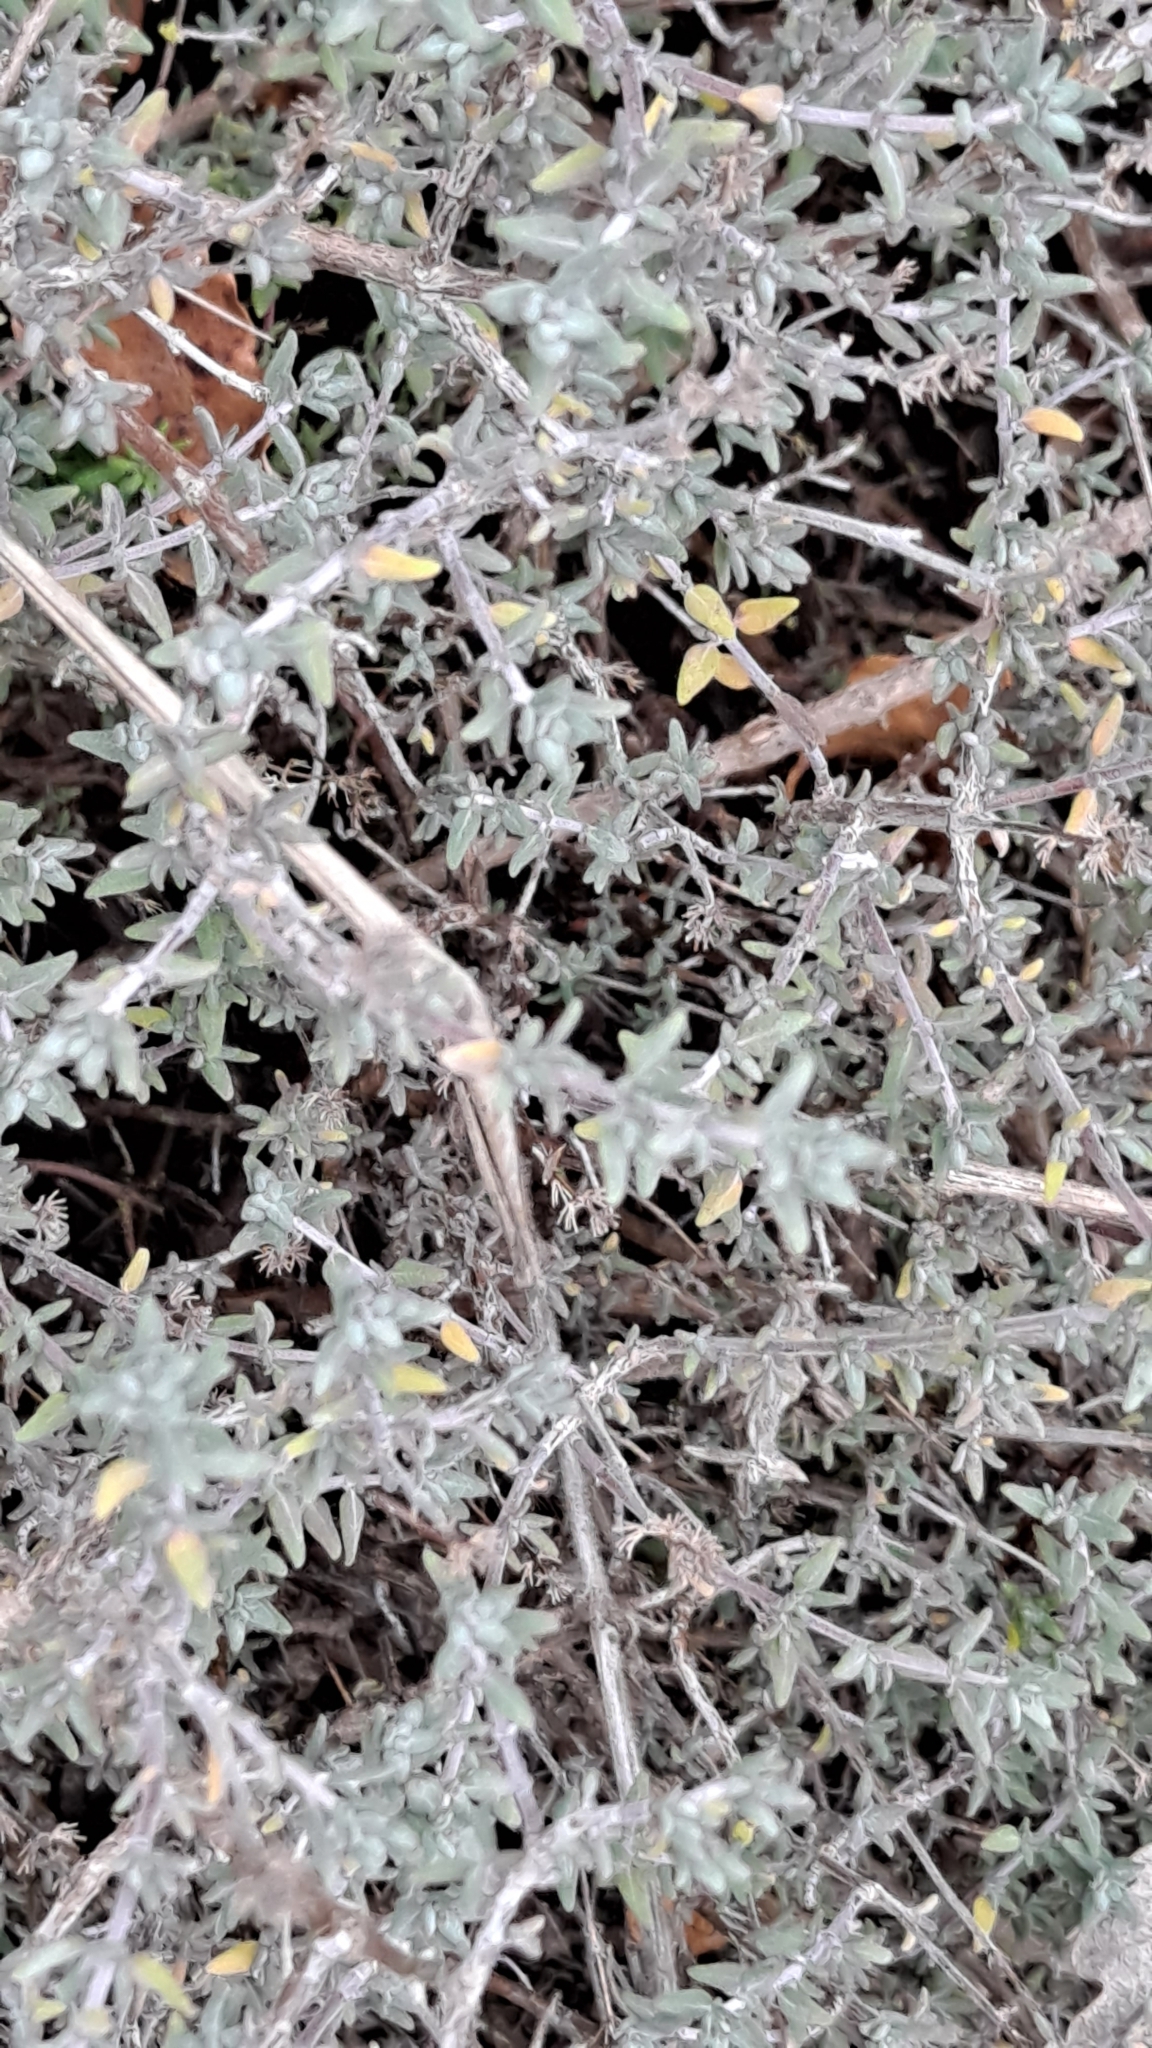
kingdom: Plantae
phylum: Tracheophyta
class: Magnoliopsida
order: Lamiales
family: Lamiaceae
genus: Thymus
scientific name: Thymus vulgaris
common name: Garden thyme
